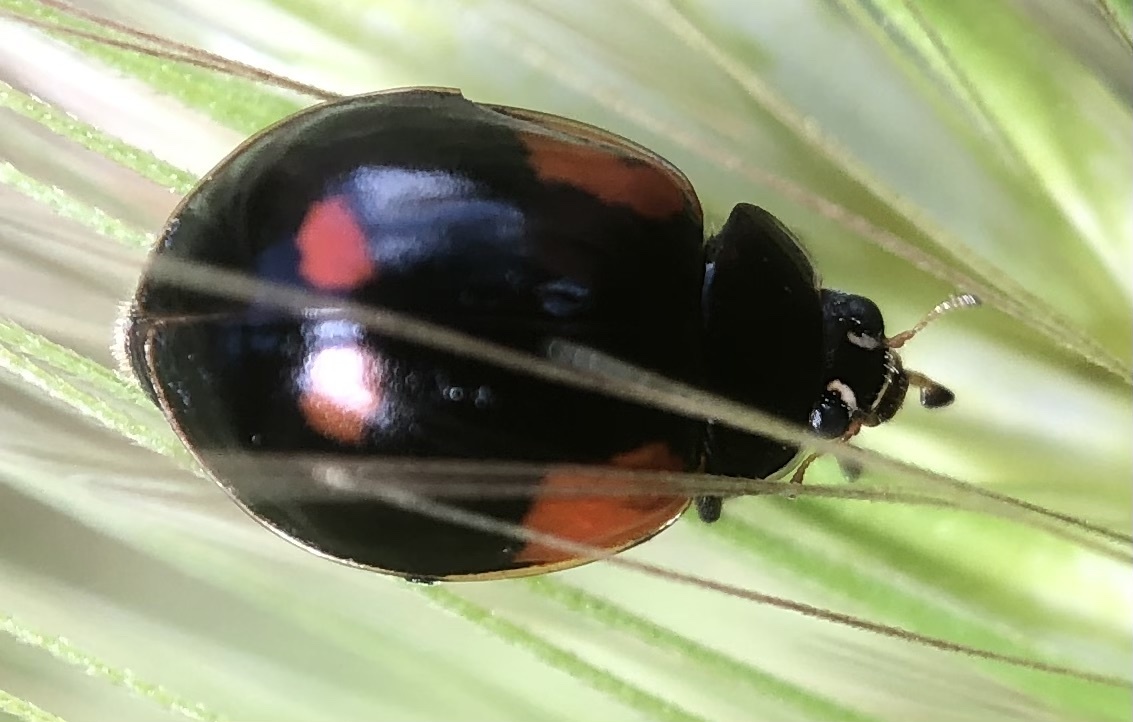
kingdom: Animalia
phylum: Arthropoda
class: Insecta
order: Coleoptera
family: Coccinellidae
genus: Adalia
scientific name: Adalia bipunctata
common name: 2-spot ladybird
